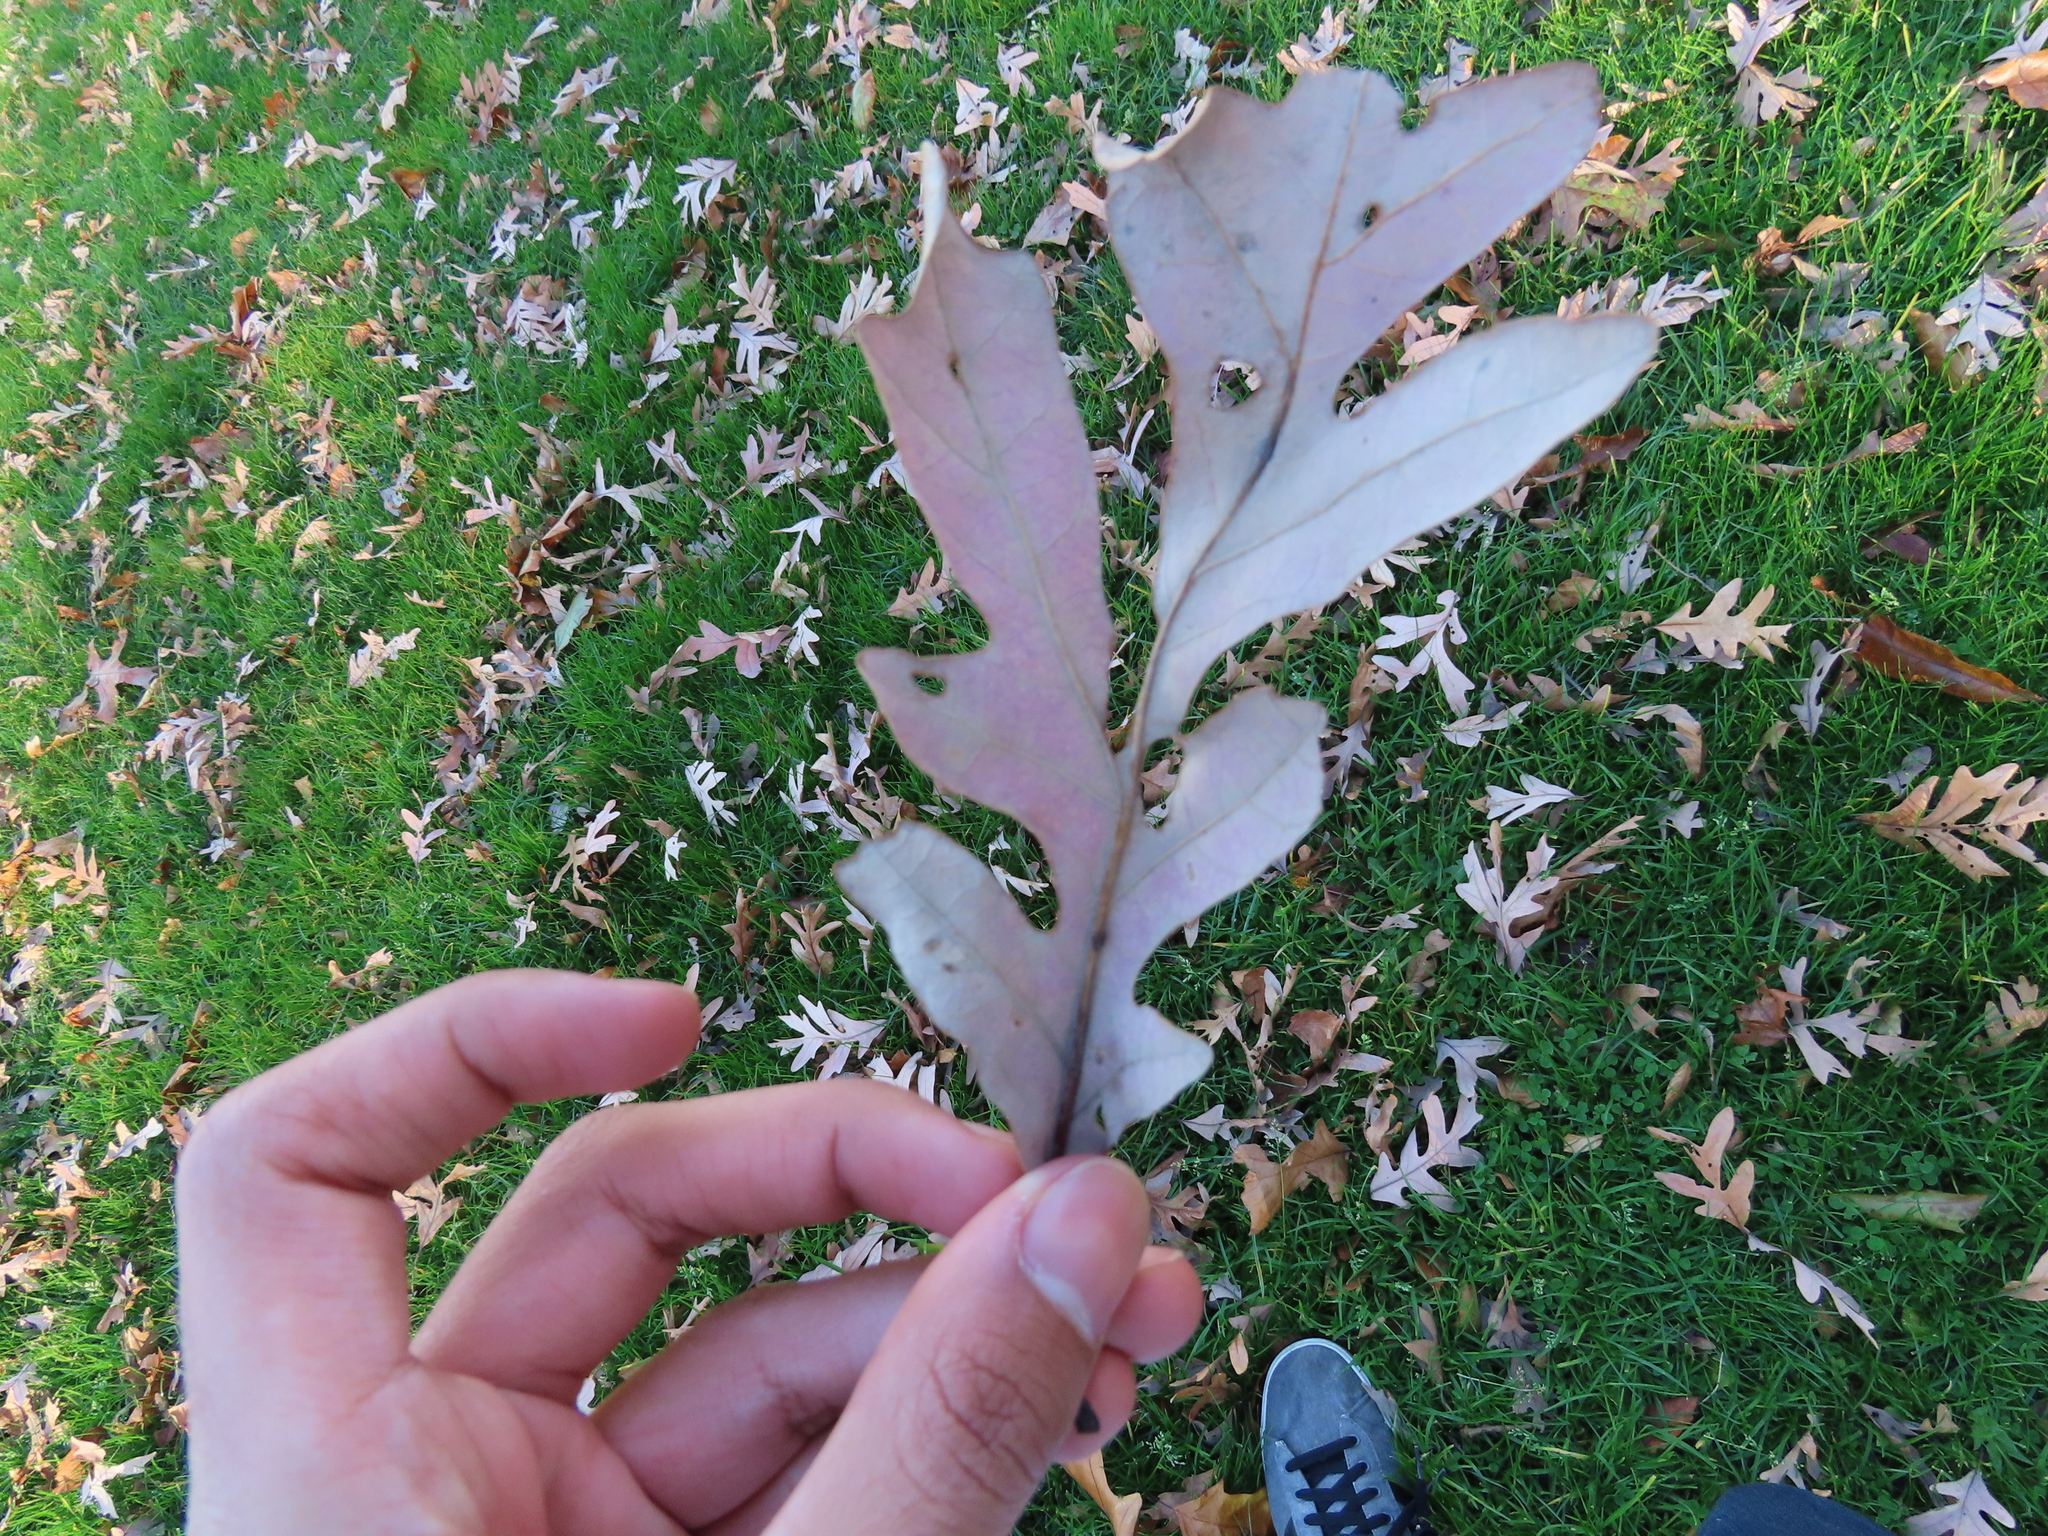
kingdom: Animalia
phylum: Arthropoda
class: Insecta
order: Hymenoptera
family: Cynipidae
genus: Acraspis
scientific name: Acraspis erinacei
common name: Hedgehog gall wasp
